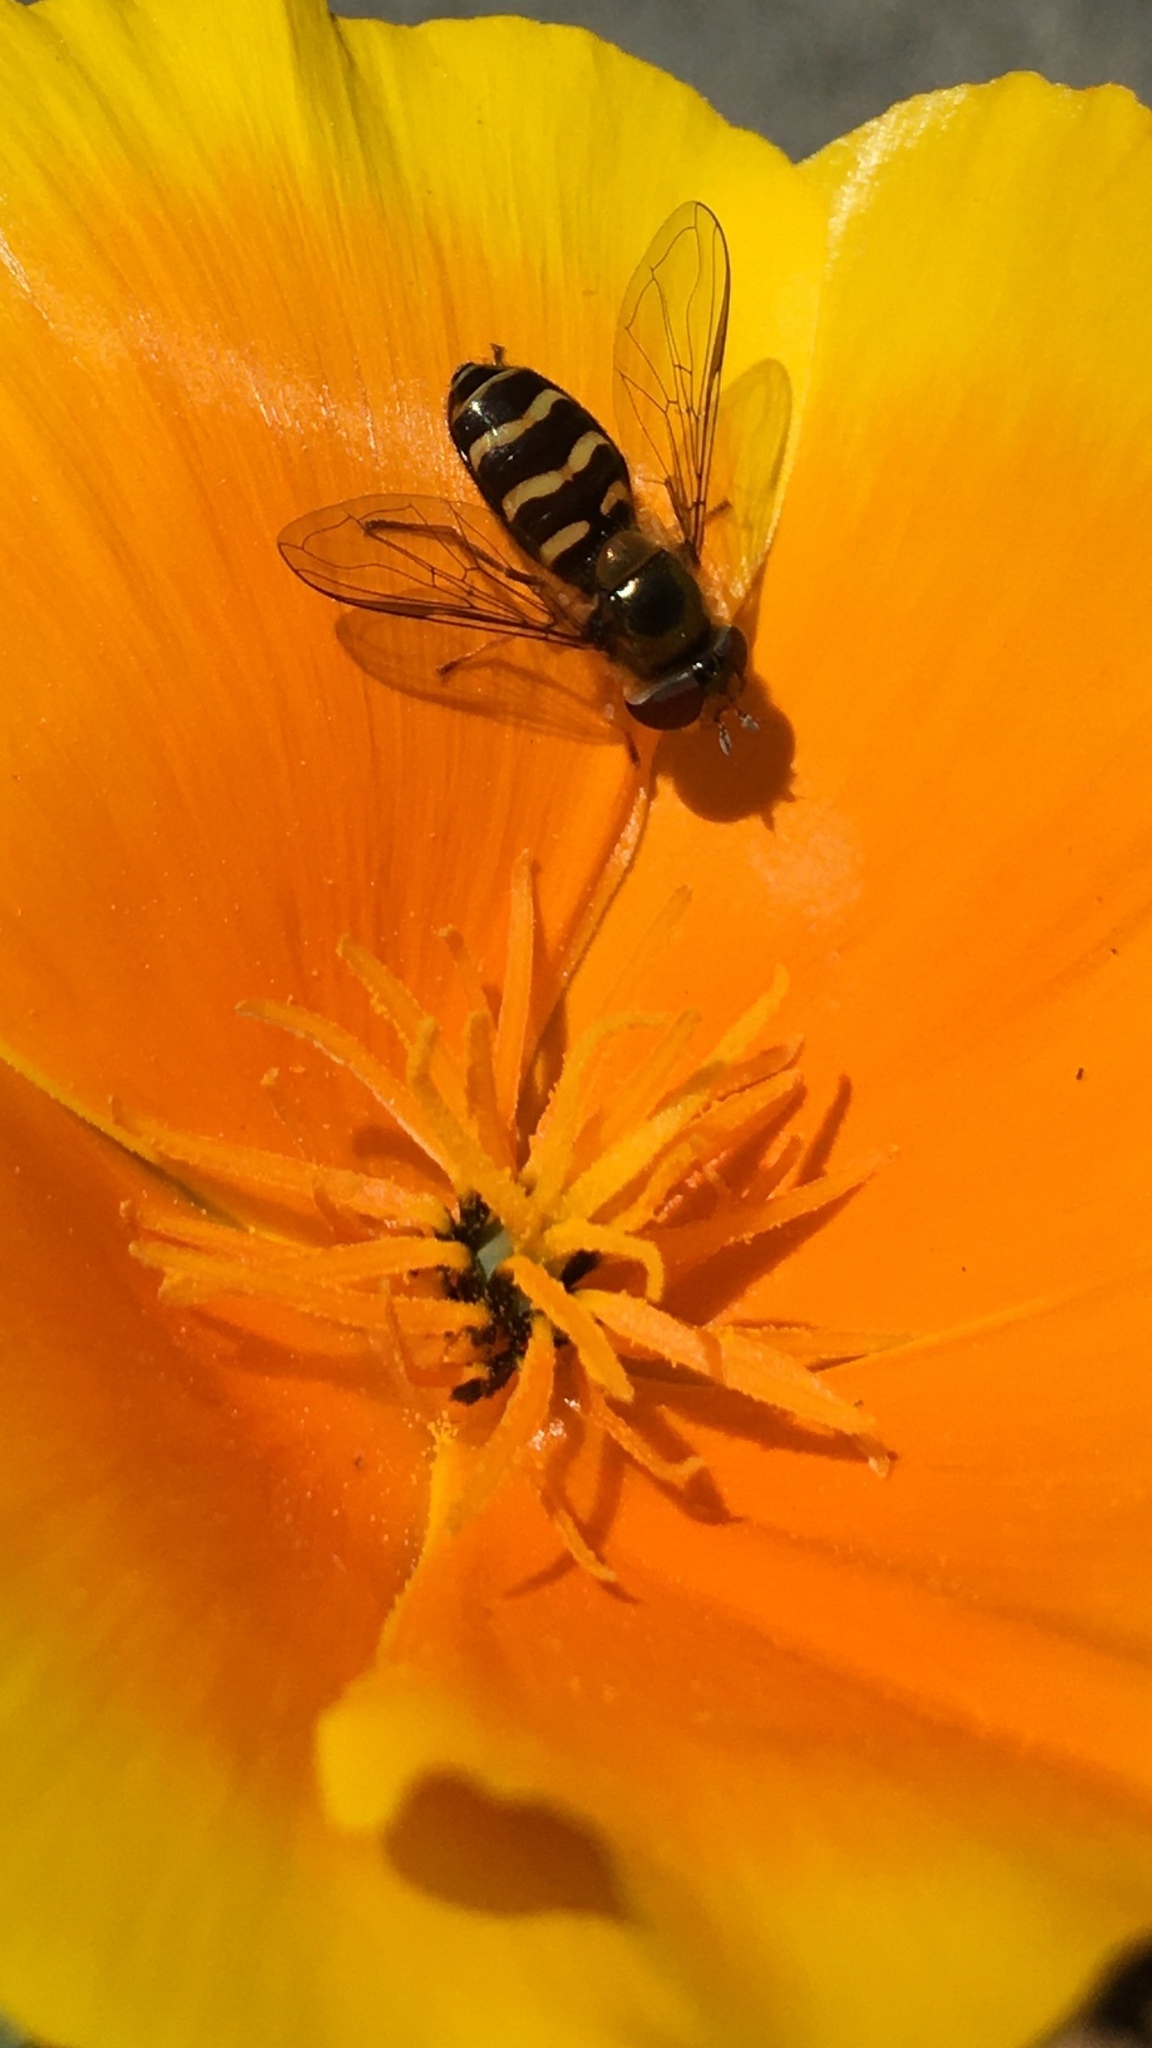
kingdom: Animalia
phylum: Arthropoda
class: Insecta
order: Diptera
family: Syrphidae
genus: Eupeodes
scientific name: Eupeodes fumipennis
